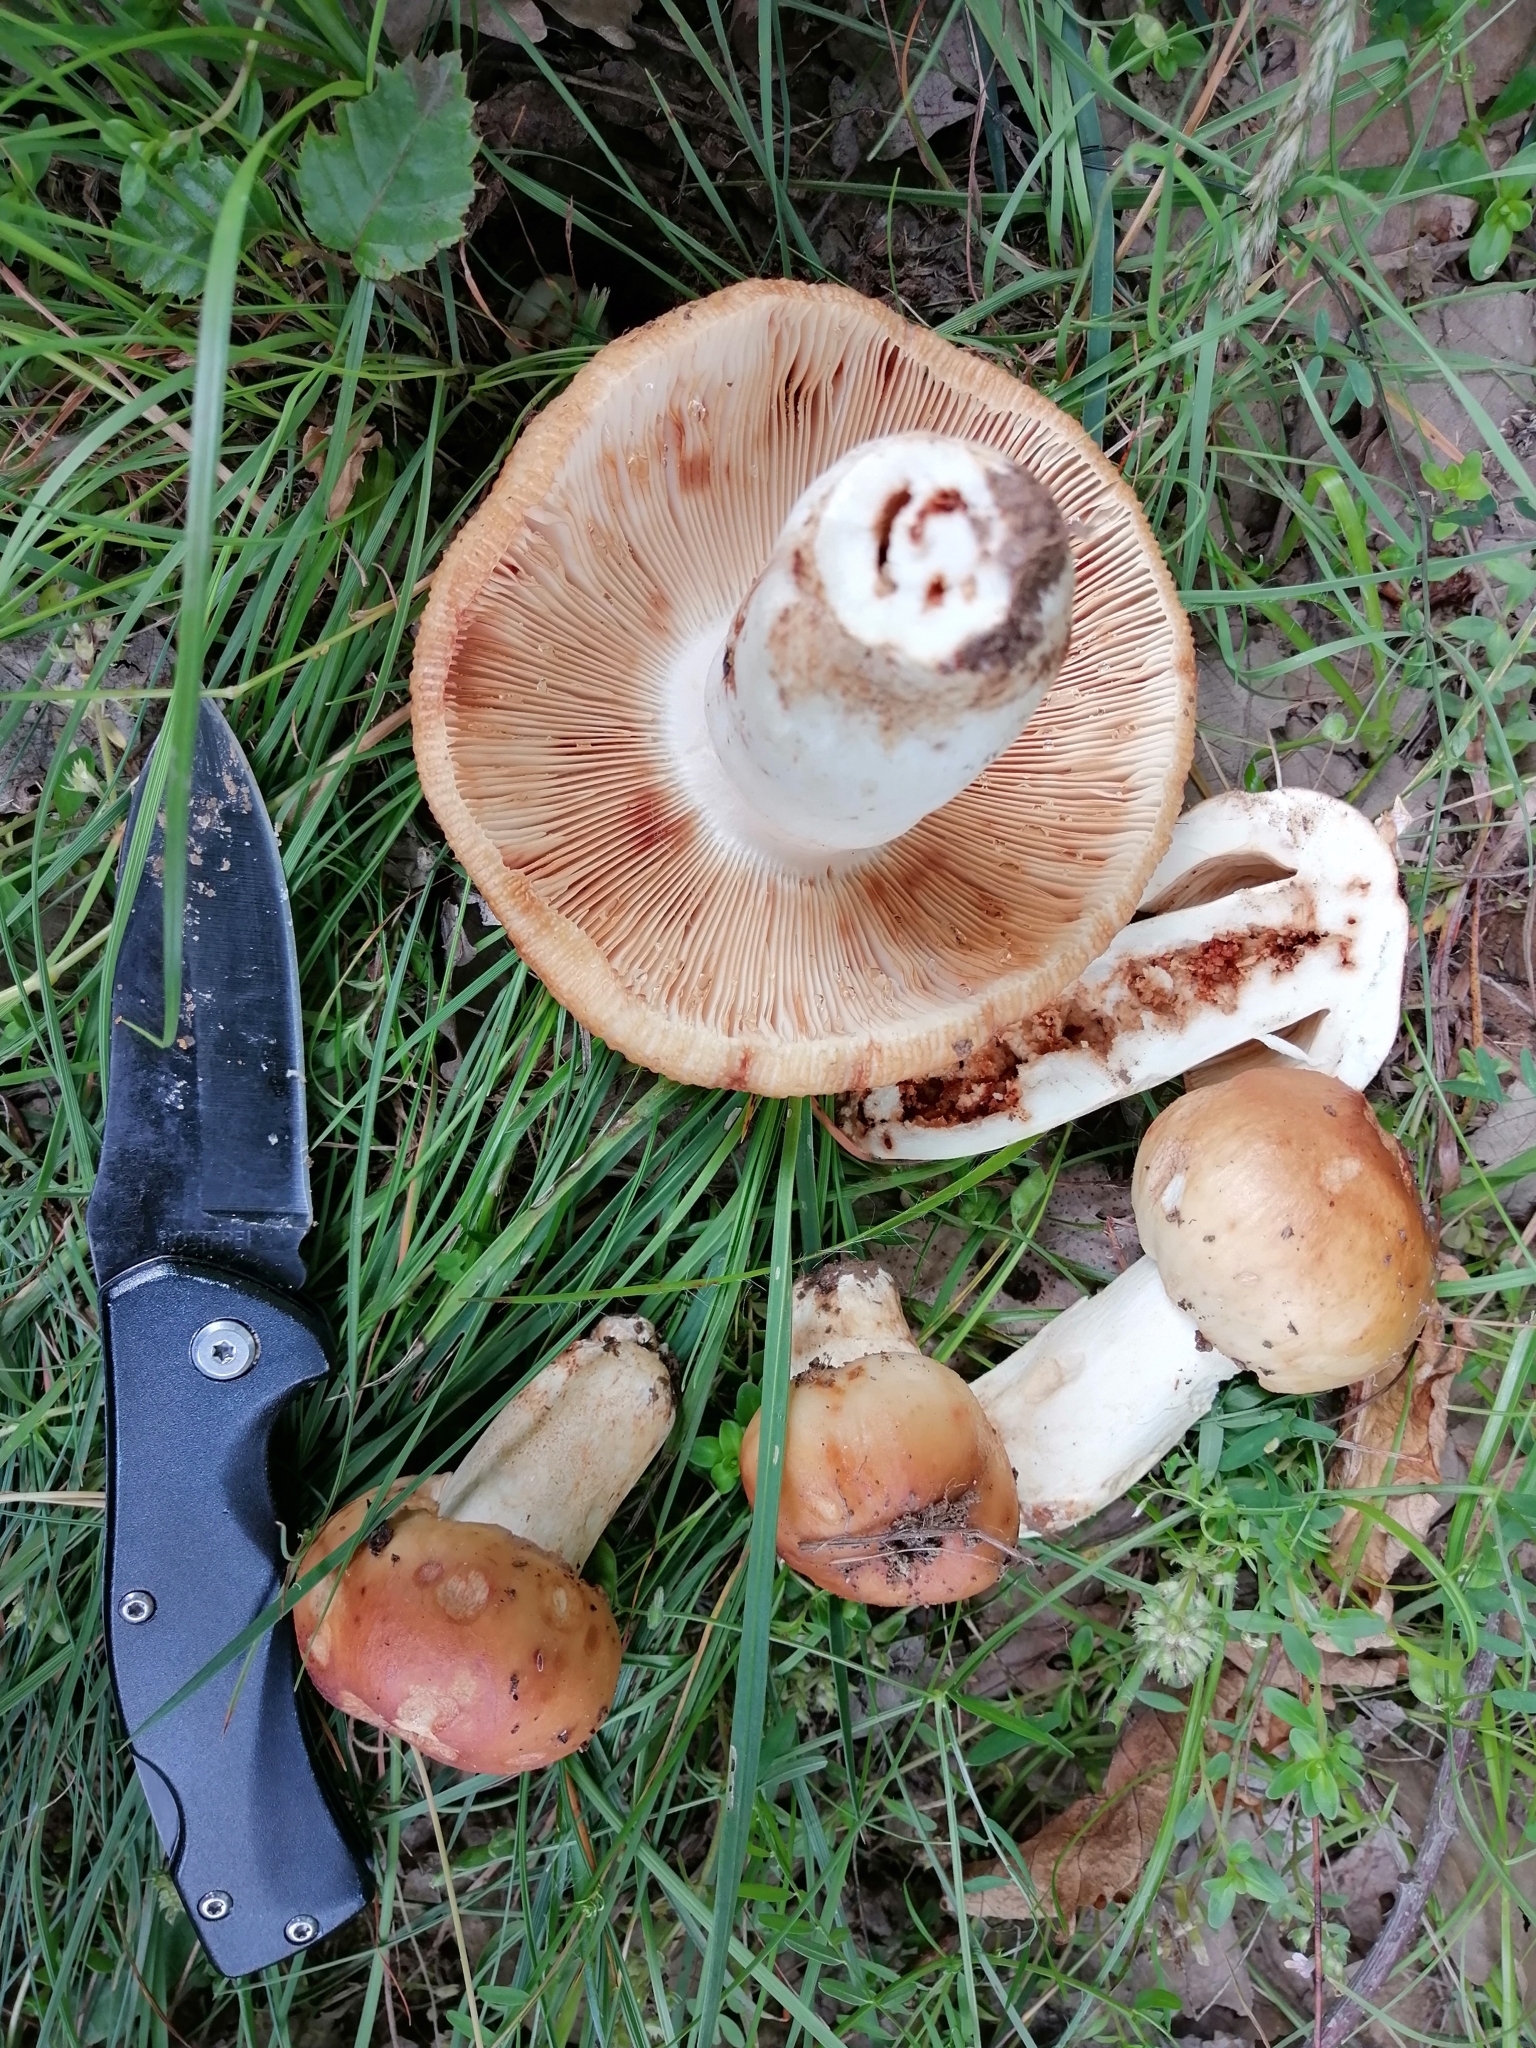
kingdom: Fungi
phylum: Basidiomycota
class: Agaricomycetes
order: Russulales
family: Russulaceae
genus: Russula
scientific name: Russula illota
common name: Freckled brittlegill
